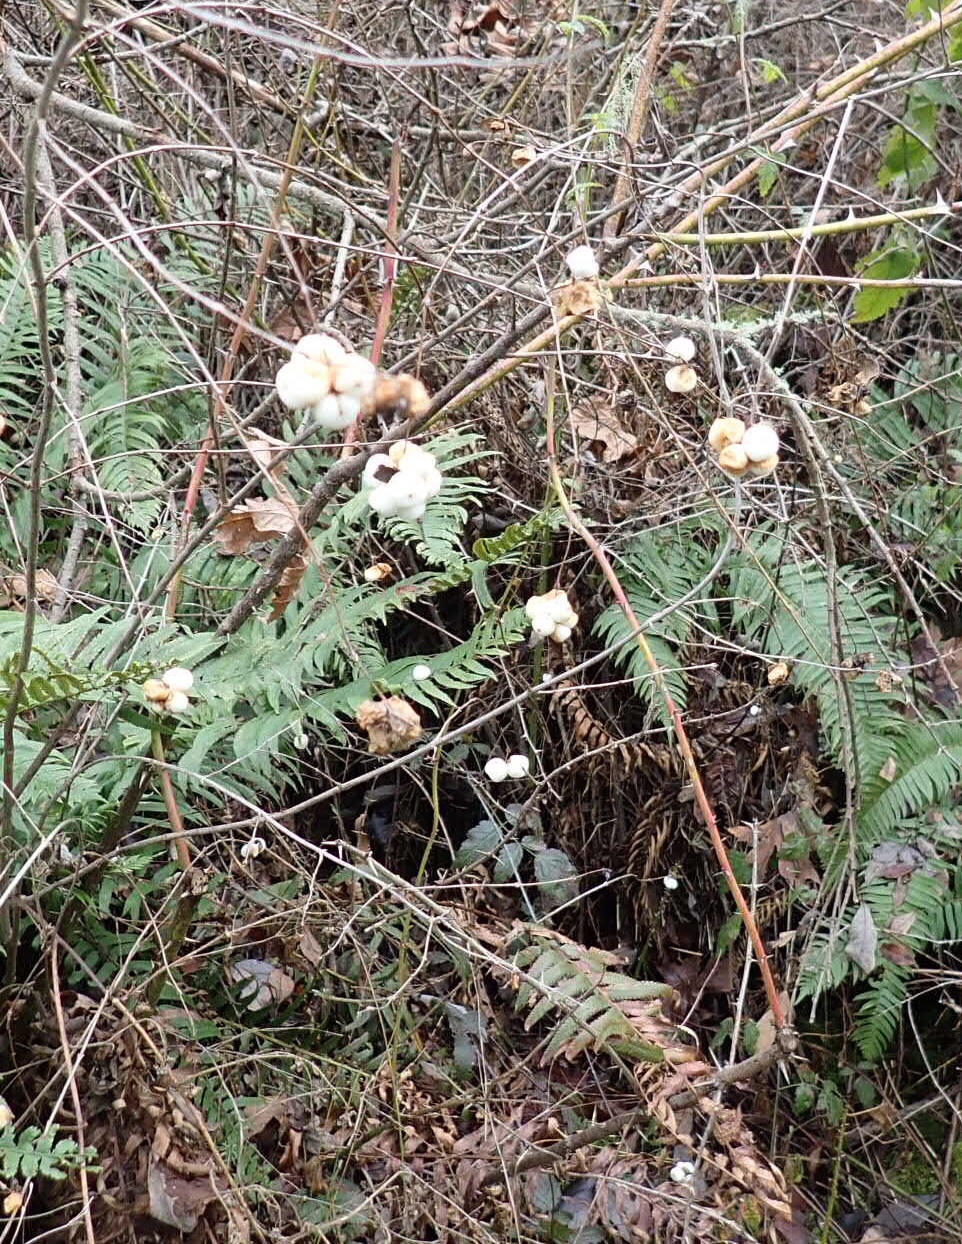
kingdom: Plantae
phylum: Tracheophyta
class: Magnoliopsida
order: Dipsacales
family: Caprifoliaceae
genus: Symphoricarpos
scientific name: Symphoricarpos albus
